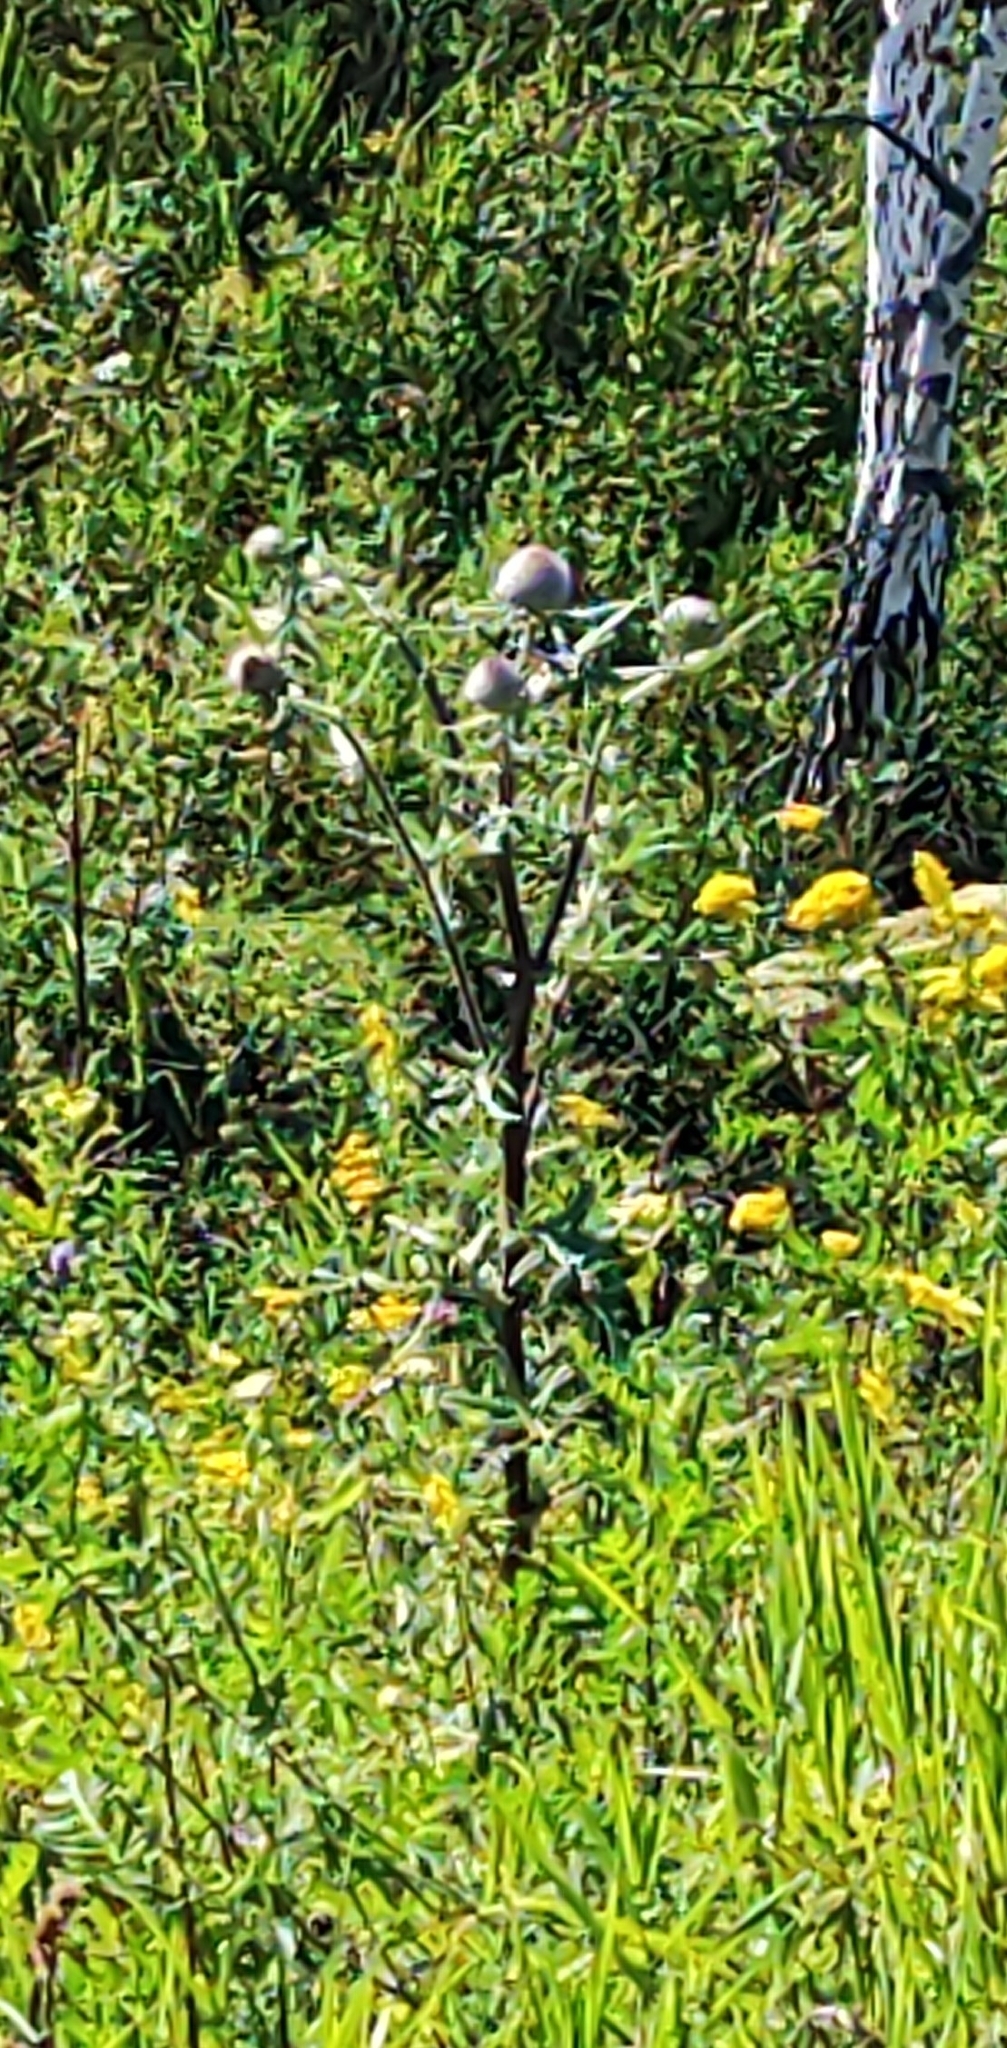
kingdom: Plantae
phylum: Tracheophyta
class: Magnoliopsida
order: Asterales
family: Asteraceae
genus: Lophiolepis
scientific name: Lophiolepis decussata
